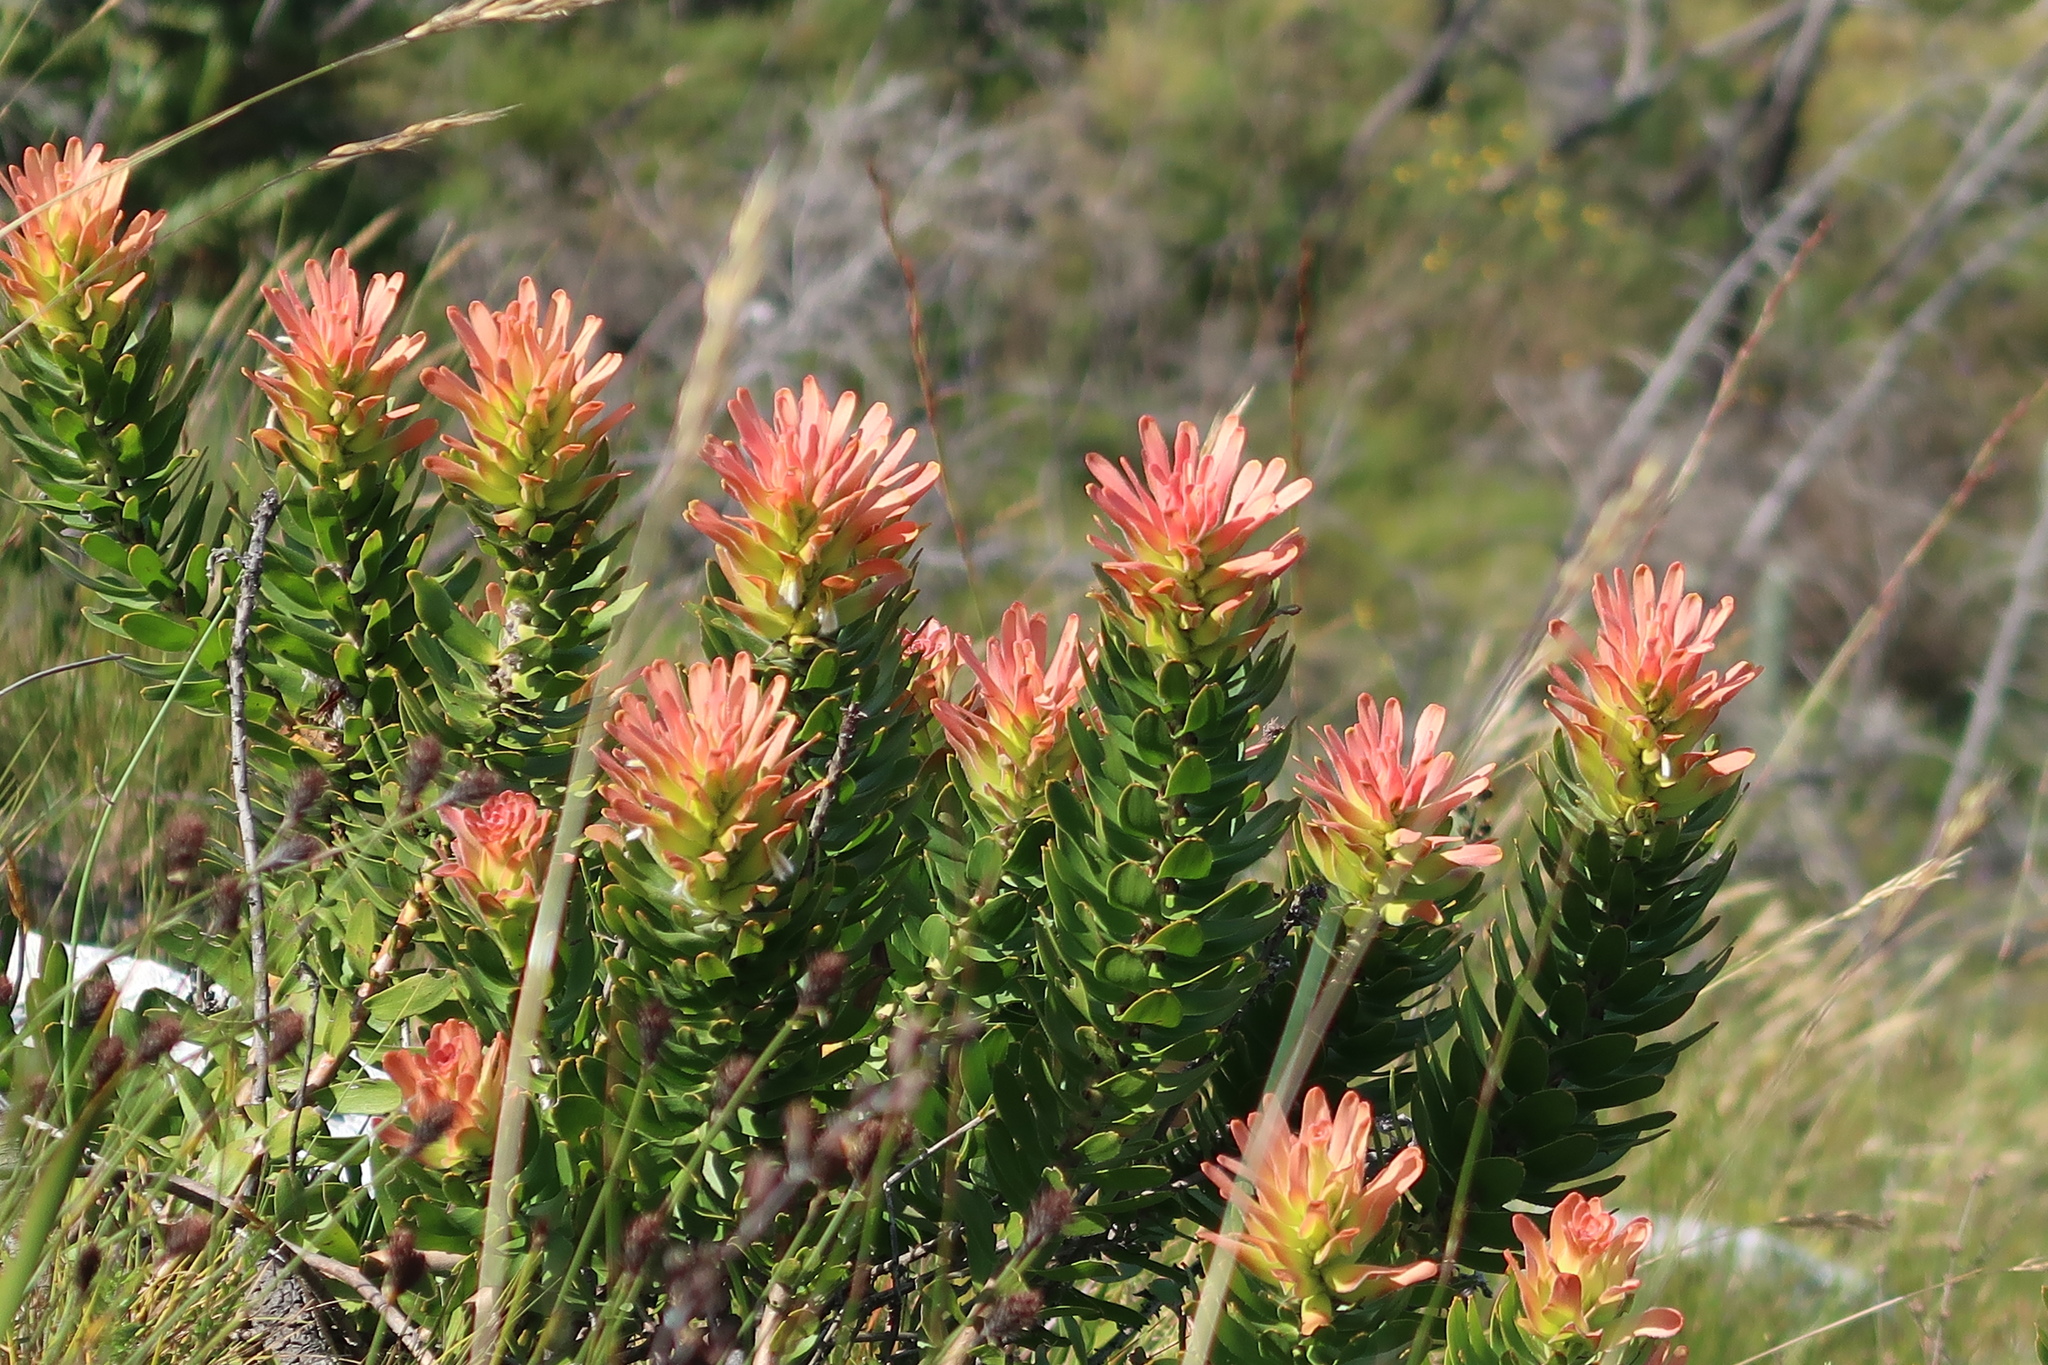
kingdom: Plantae
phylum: Tracheophyta
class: Magnoliopsida
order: Proteales
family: Proteaceae
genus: Mimetes
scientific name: Mimetes cucullatus
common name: Common pagoda
